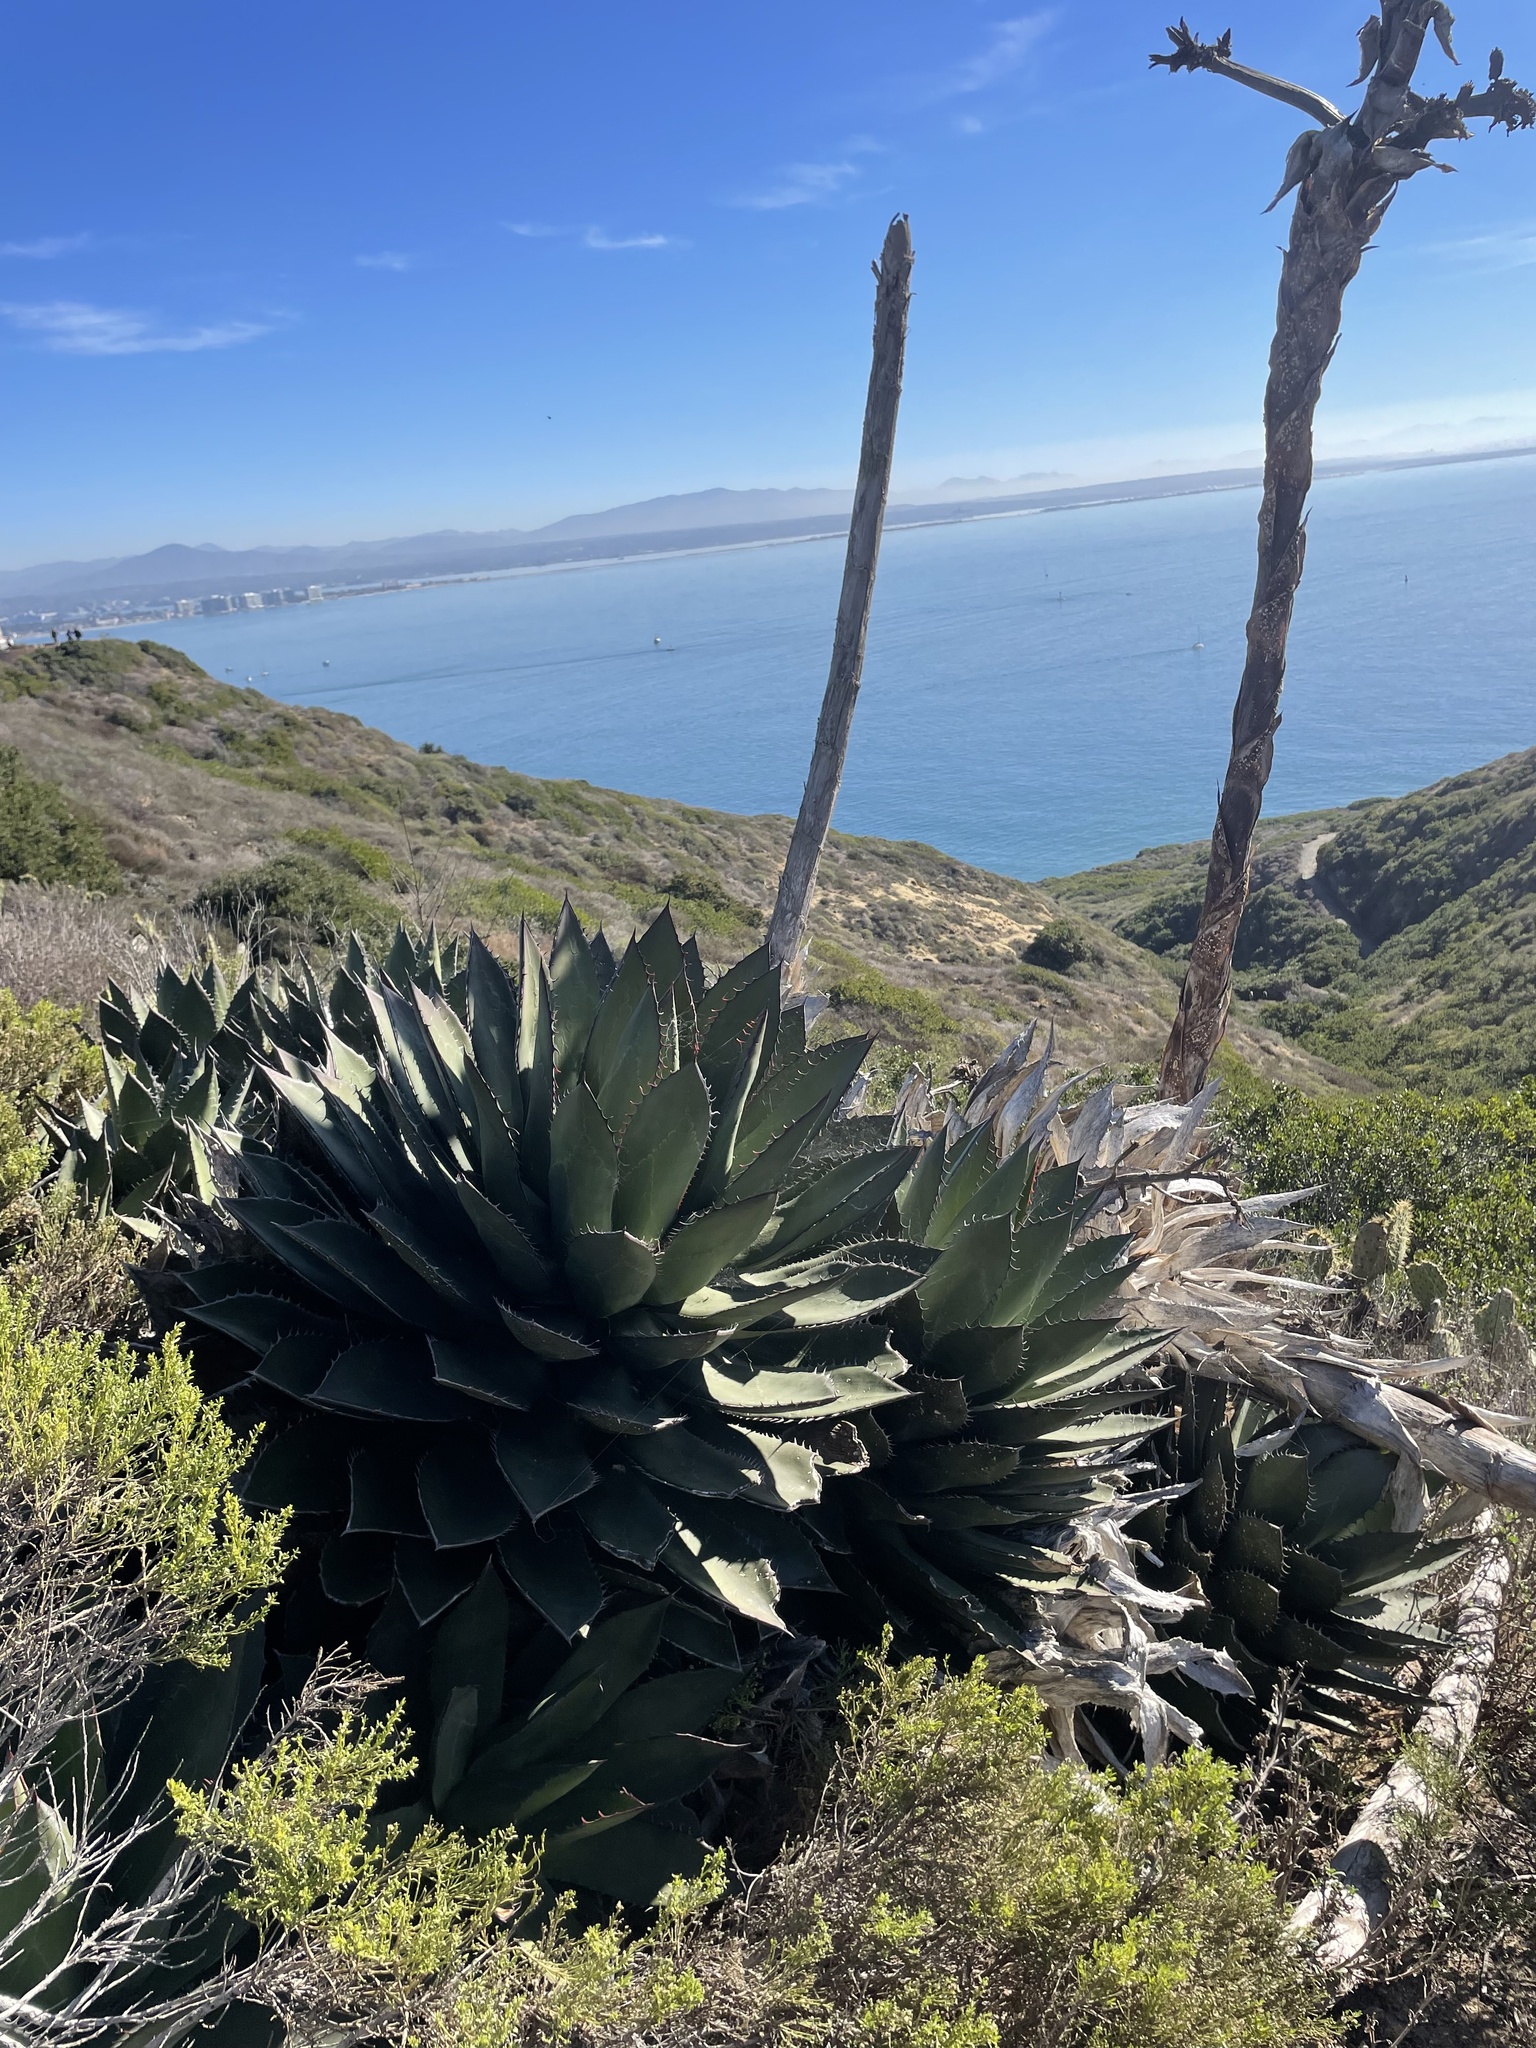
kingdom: Plantae
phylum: Tracheophyta
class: Liliopsida
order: Asparagales
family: Asparagaceae
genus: Agave
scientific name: Agave shawii
